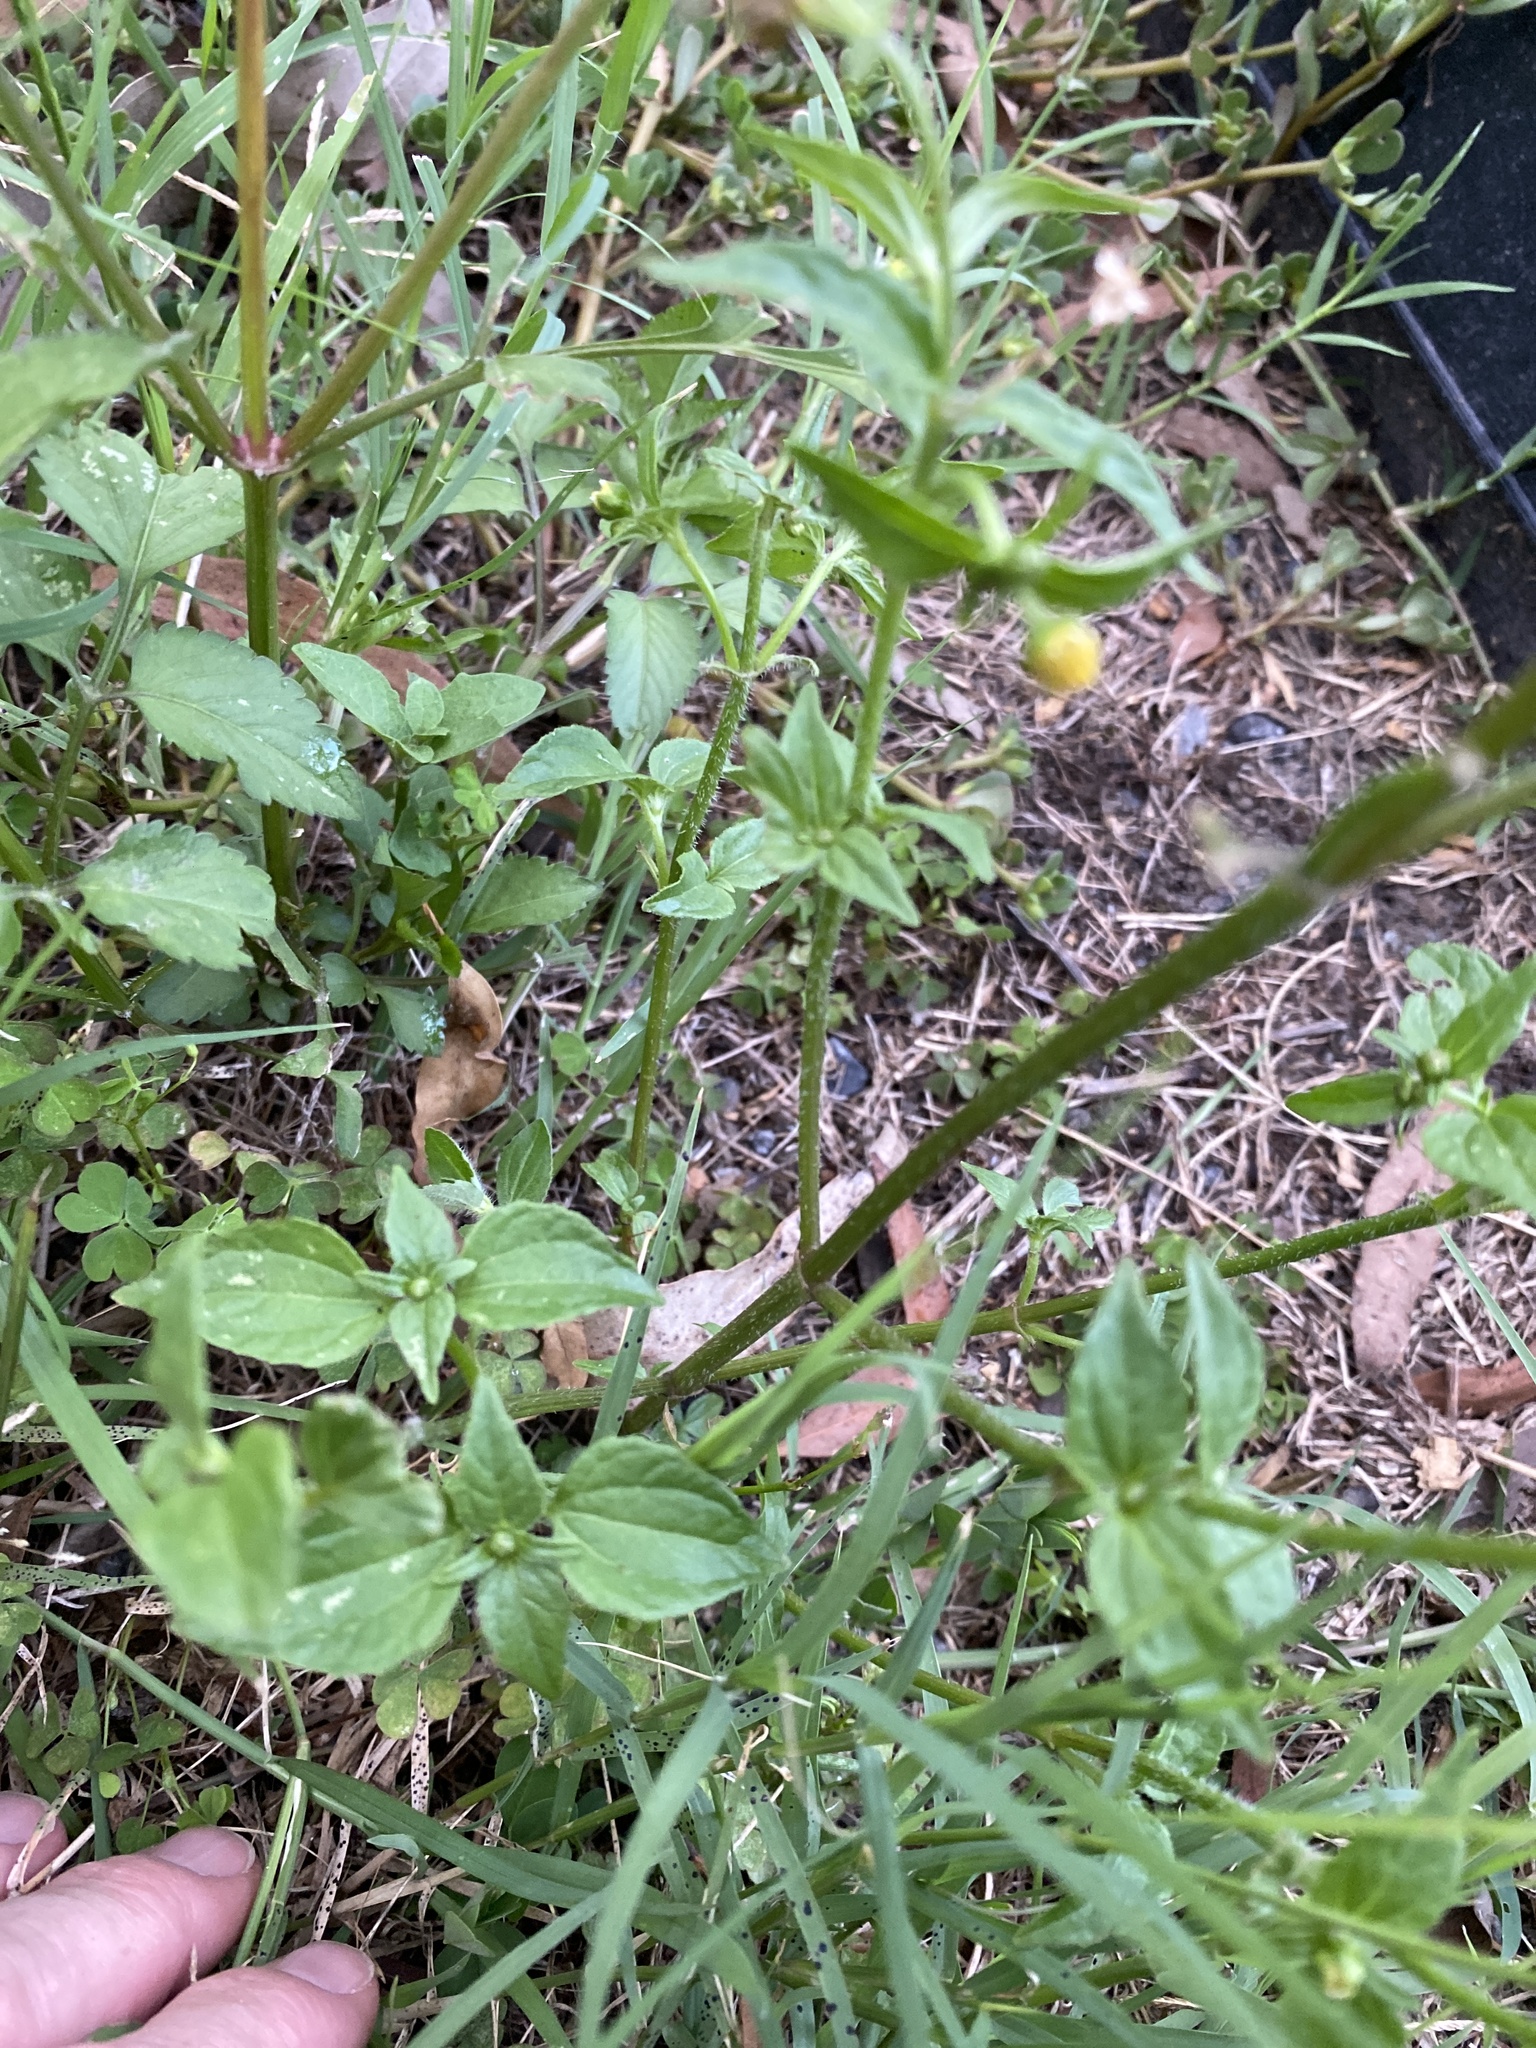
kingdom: Plantae
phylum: Tracheophyta
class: Magnoliopsida
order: Asterales
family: Asteraceae
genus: Galinsoga
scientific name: Galinsoga parviflora
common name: Gallant soldier
